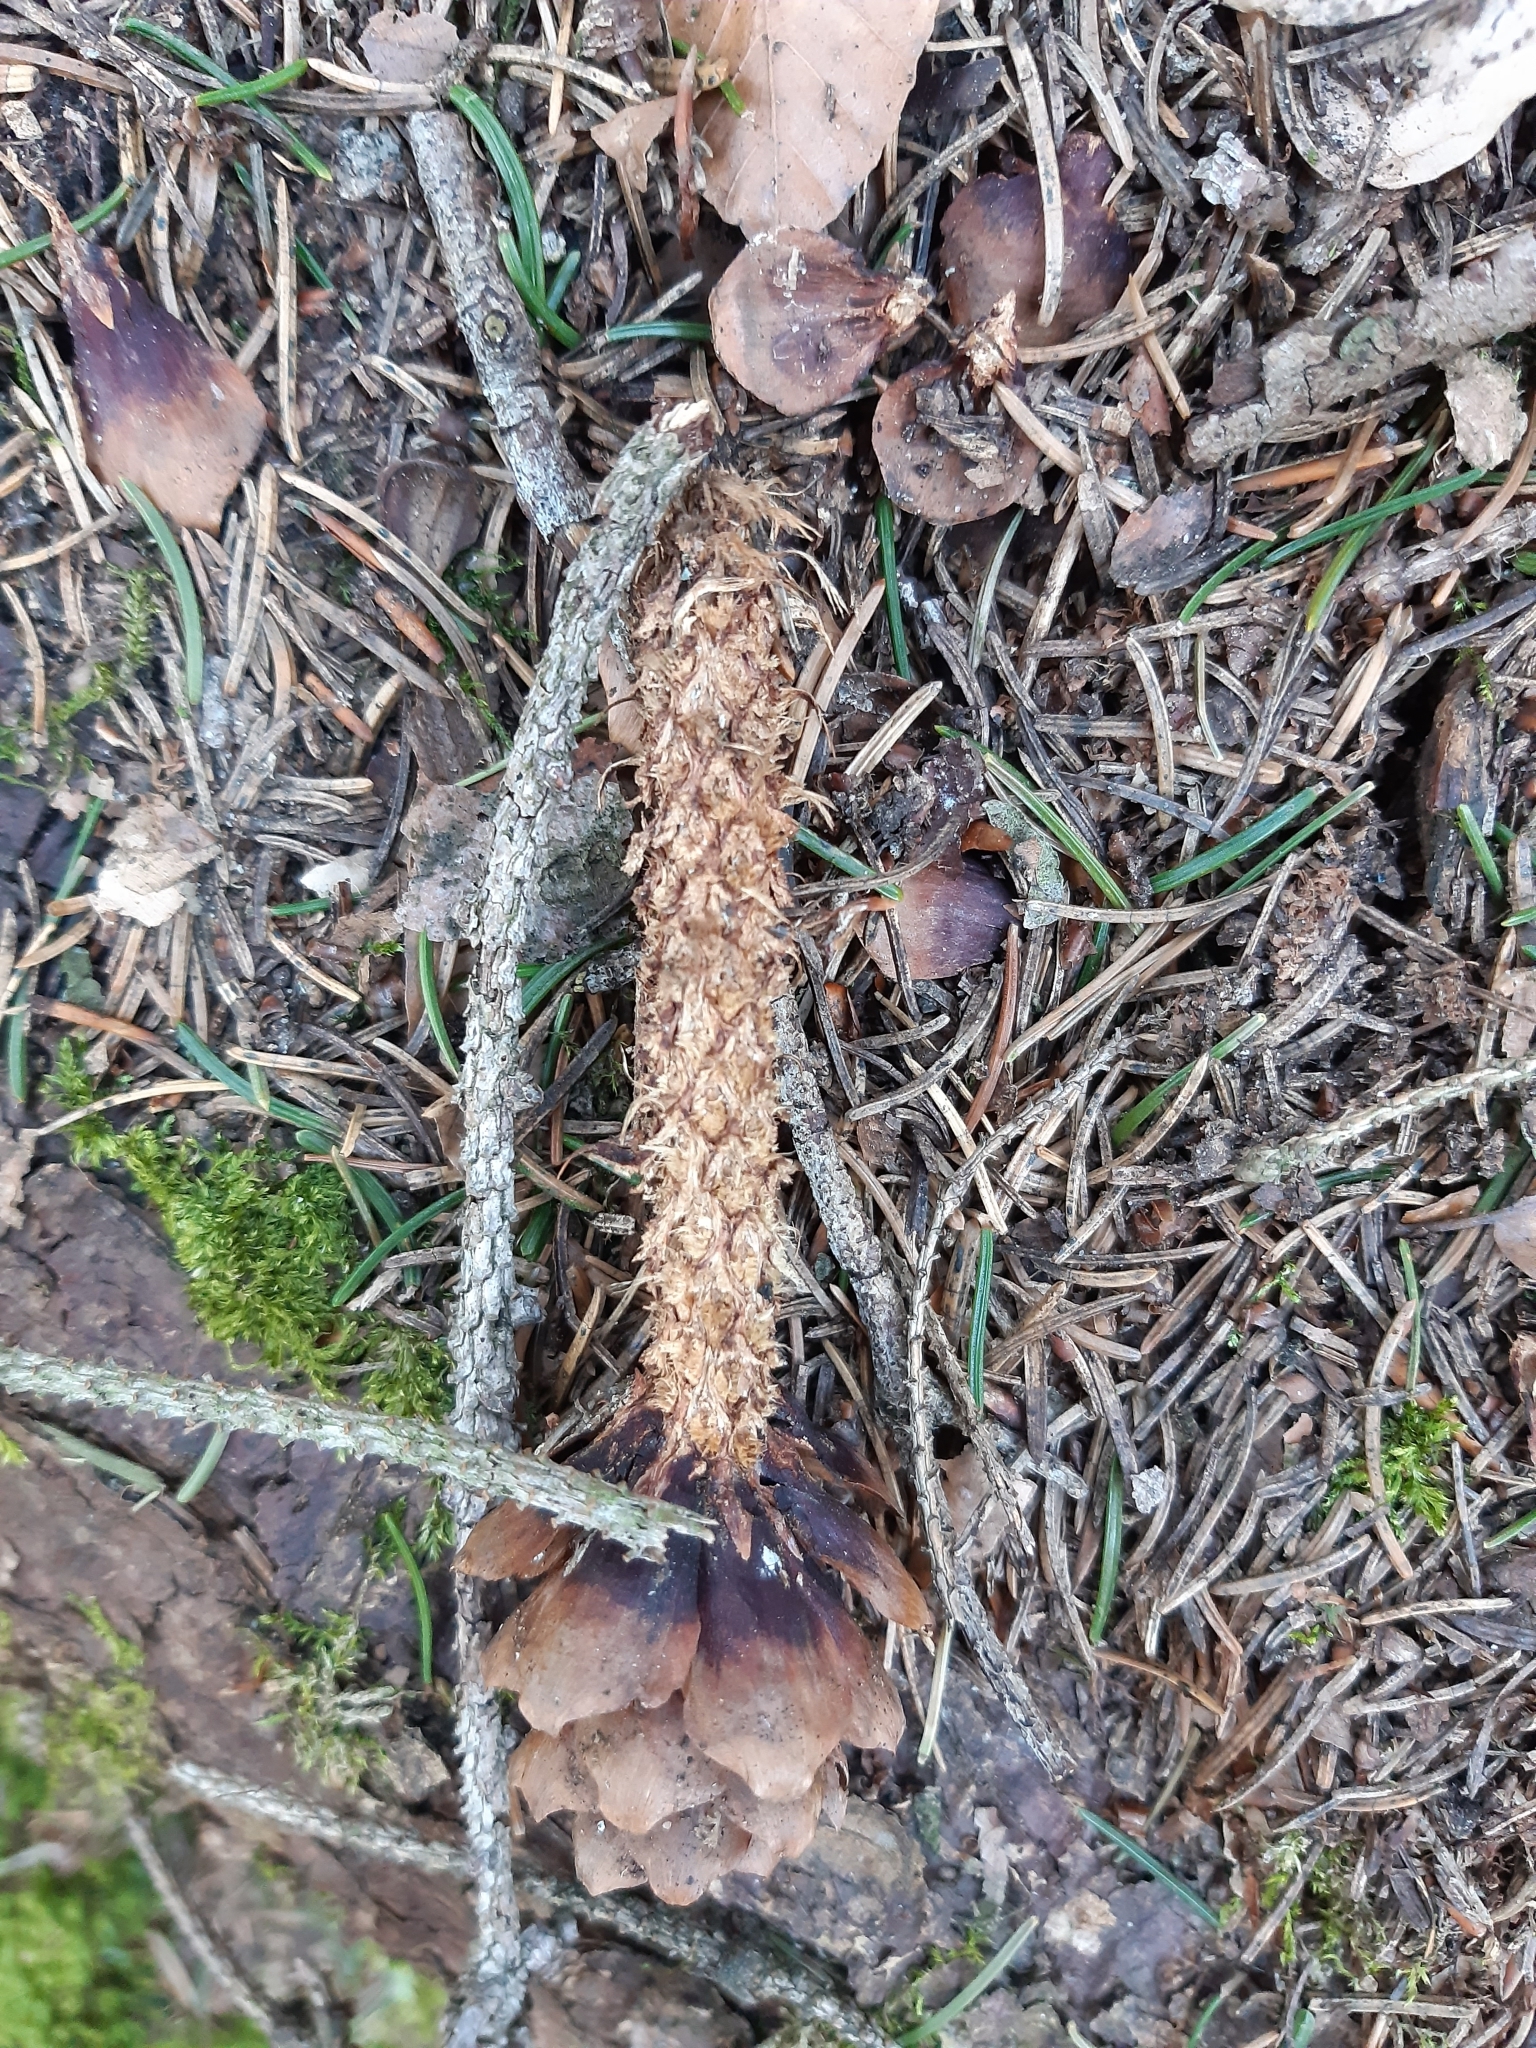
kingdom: Animalia
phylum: Chordata
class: Mammalia
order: Rodentia
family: Sciuridae
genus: Sciurus
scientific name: Sciurus vulgaris
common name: Eurasian red squirrel
